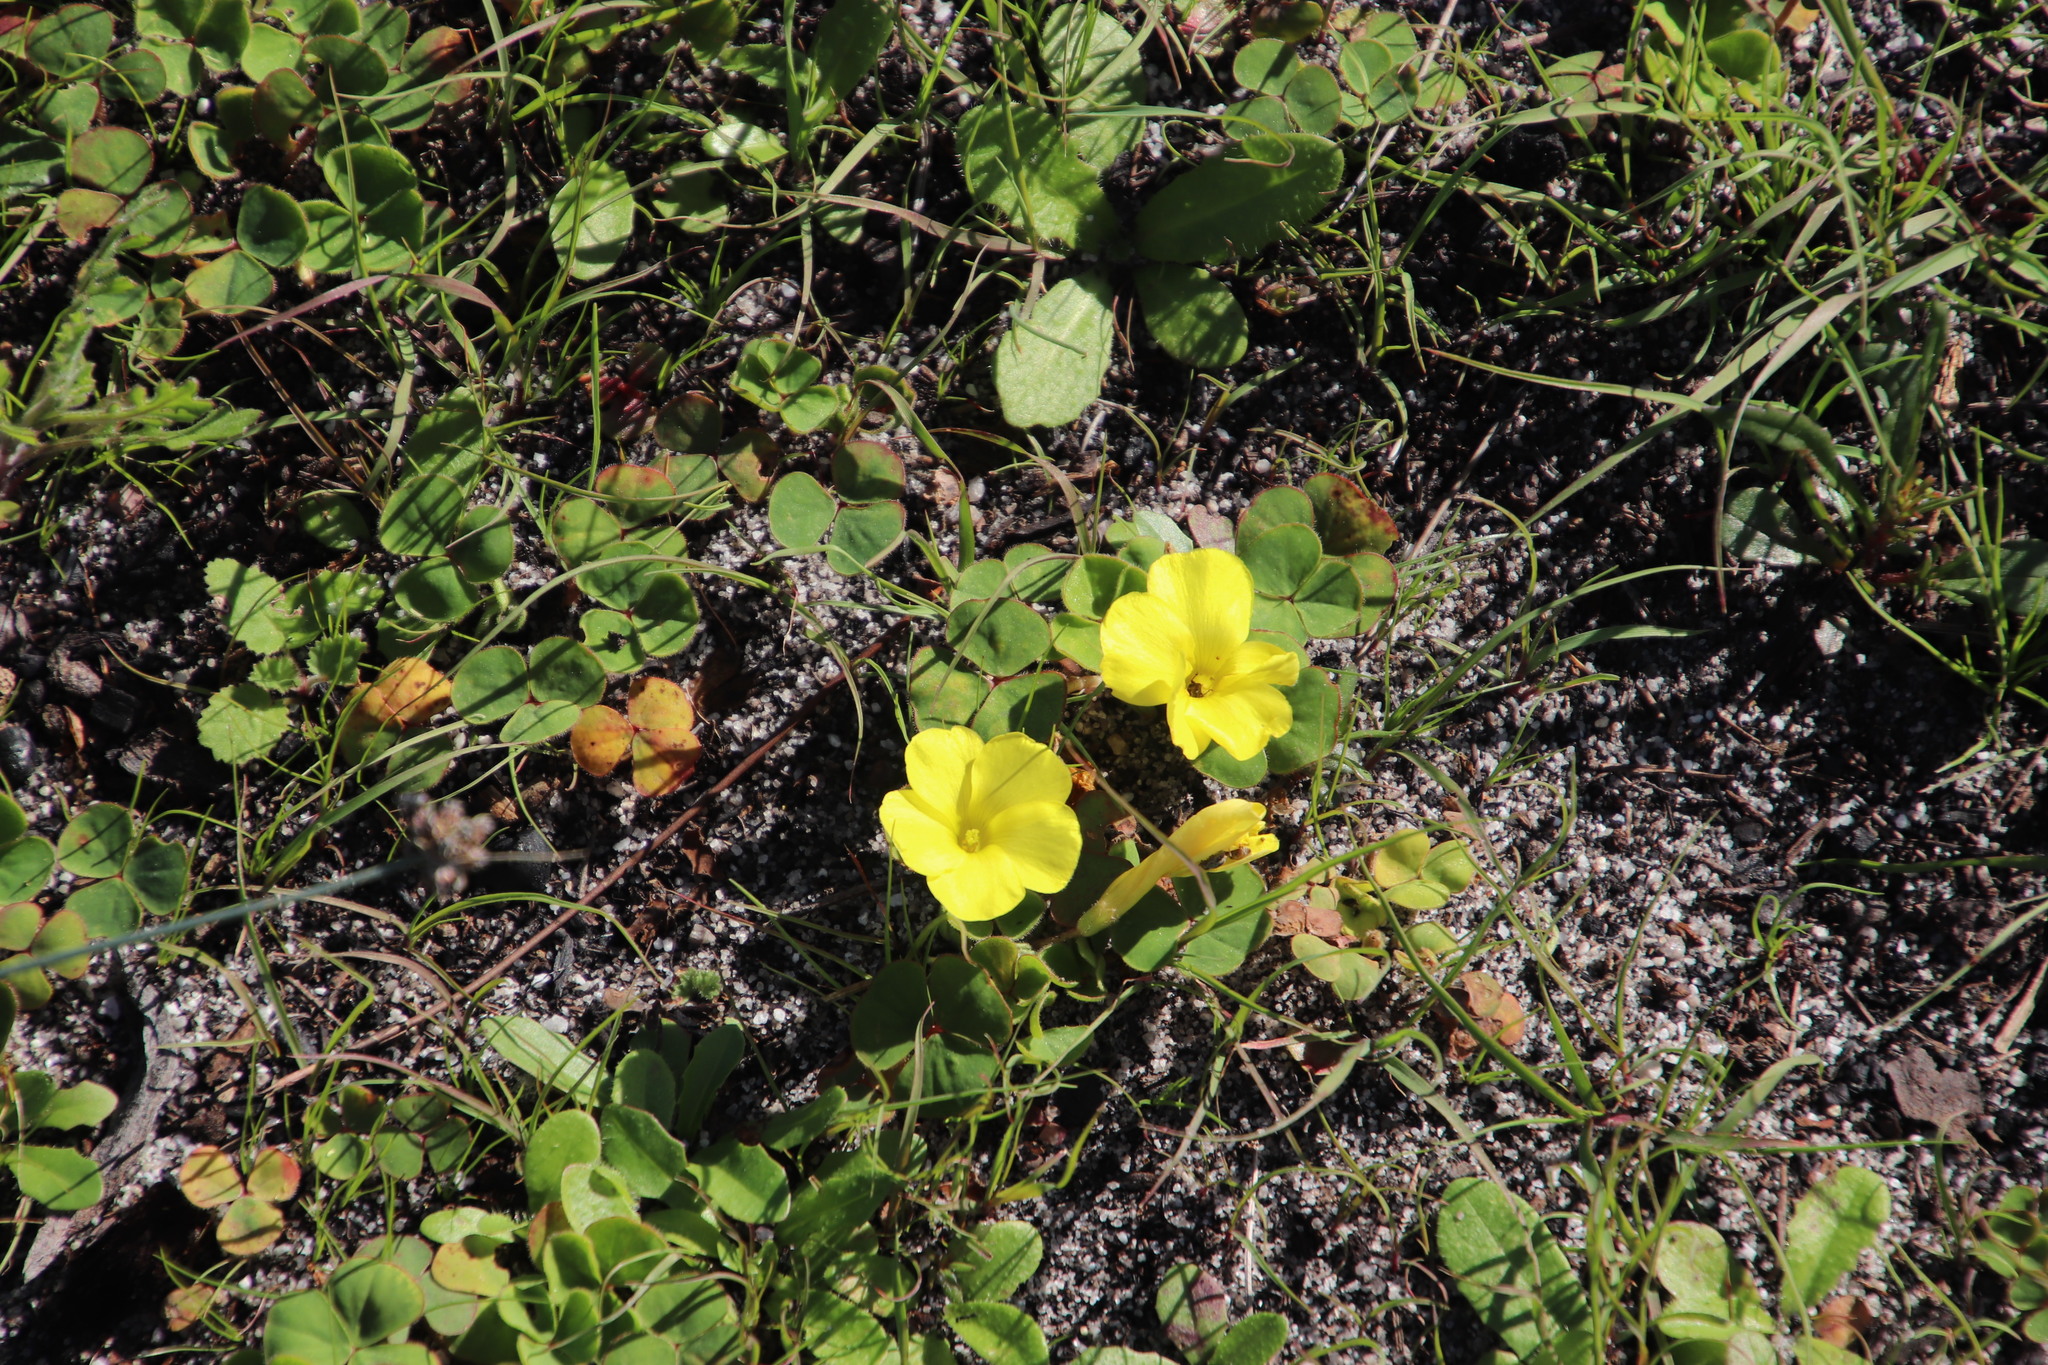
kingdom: Plantae
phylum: Tracheophyta
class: Magnoliopsida
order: Oxalidales
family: Oxalidaceae
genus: Oxalis
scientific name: Oxalis luteola
